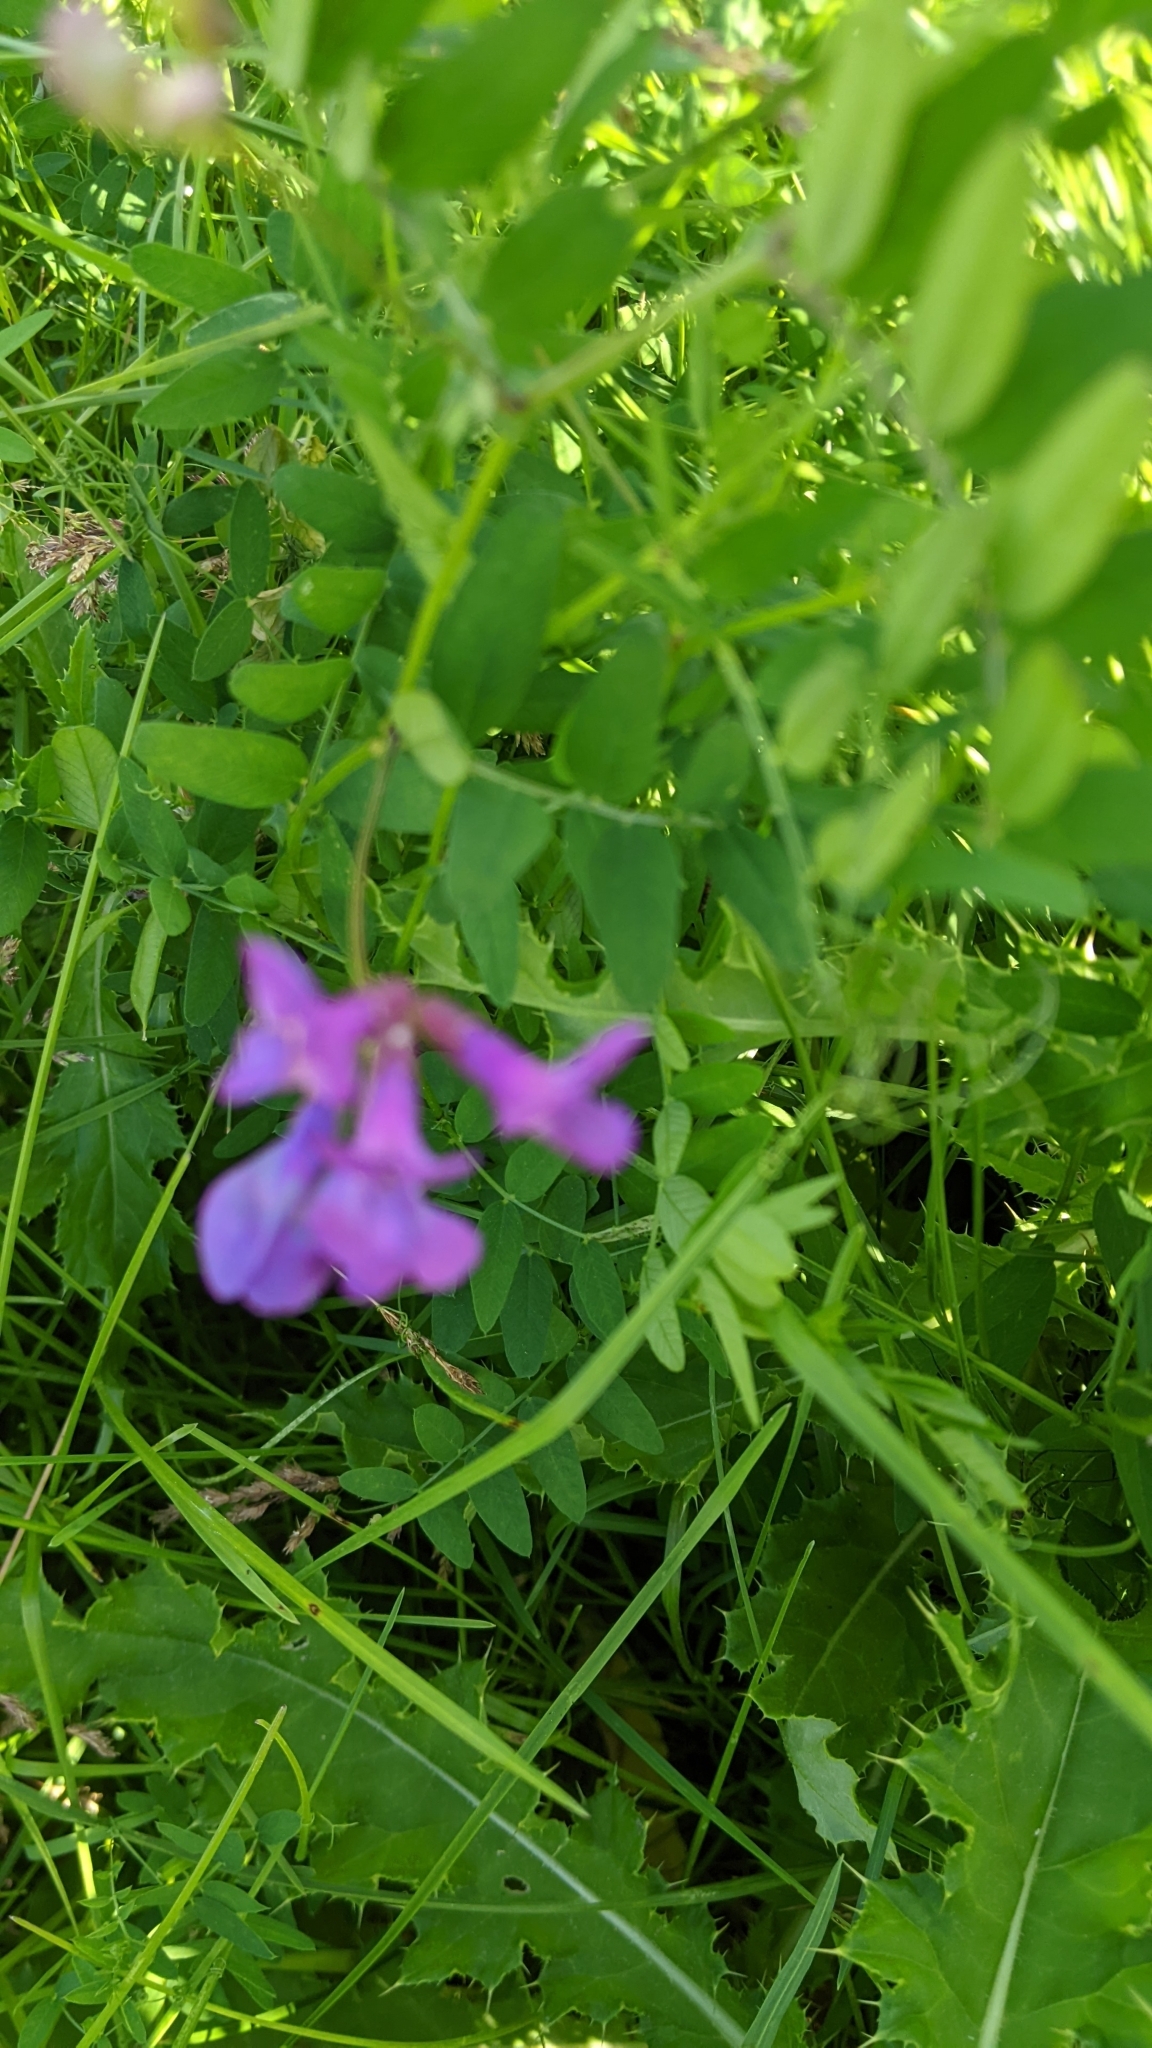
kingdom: Plantae
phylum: Tracheophyta
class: Magnoliopsida
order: Fabales
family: Fabaceae
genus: Vicia
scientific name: Vicia americana
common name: American vetch
